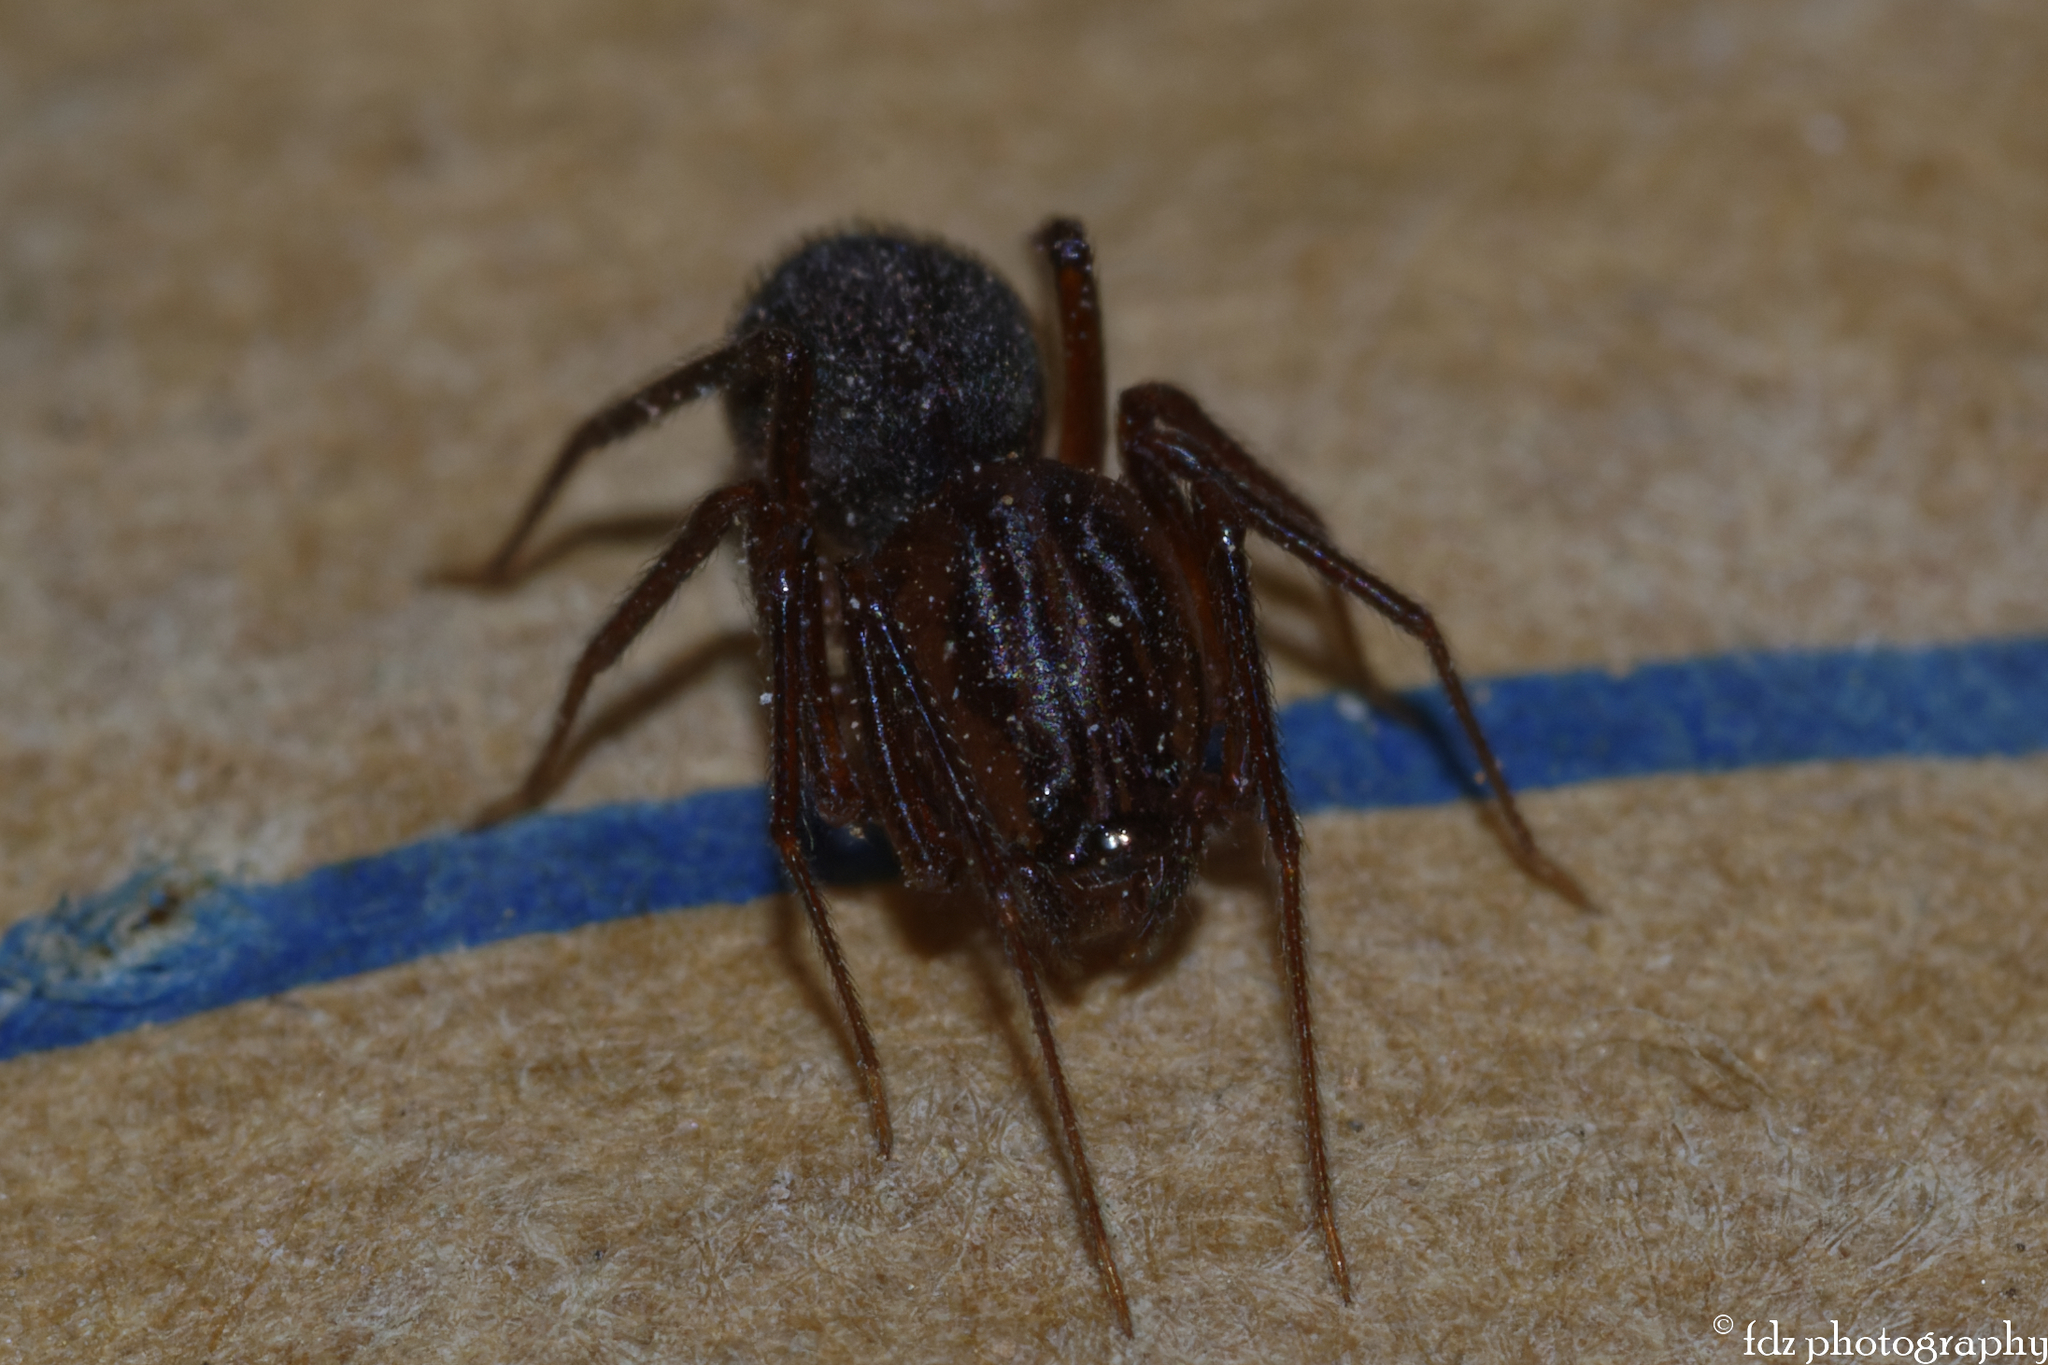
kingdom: Animalia
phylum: Arthropoda
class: Arachnida
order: Araneae
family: Scytodidae
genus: Scytodes
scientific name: Scytodes velutina
